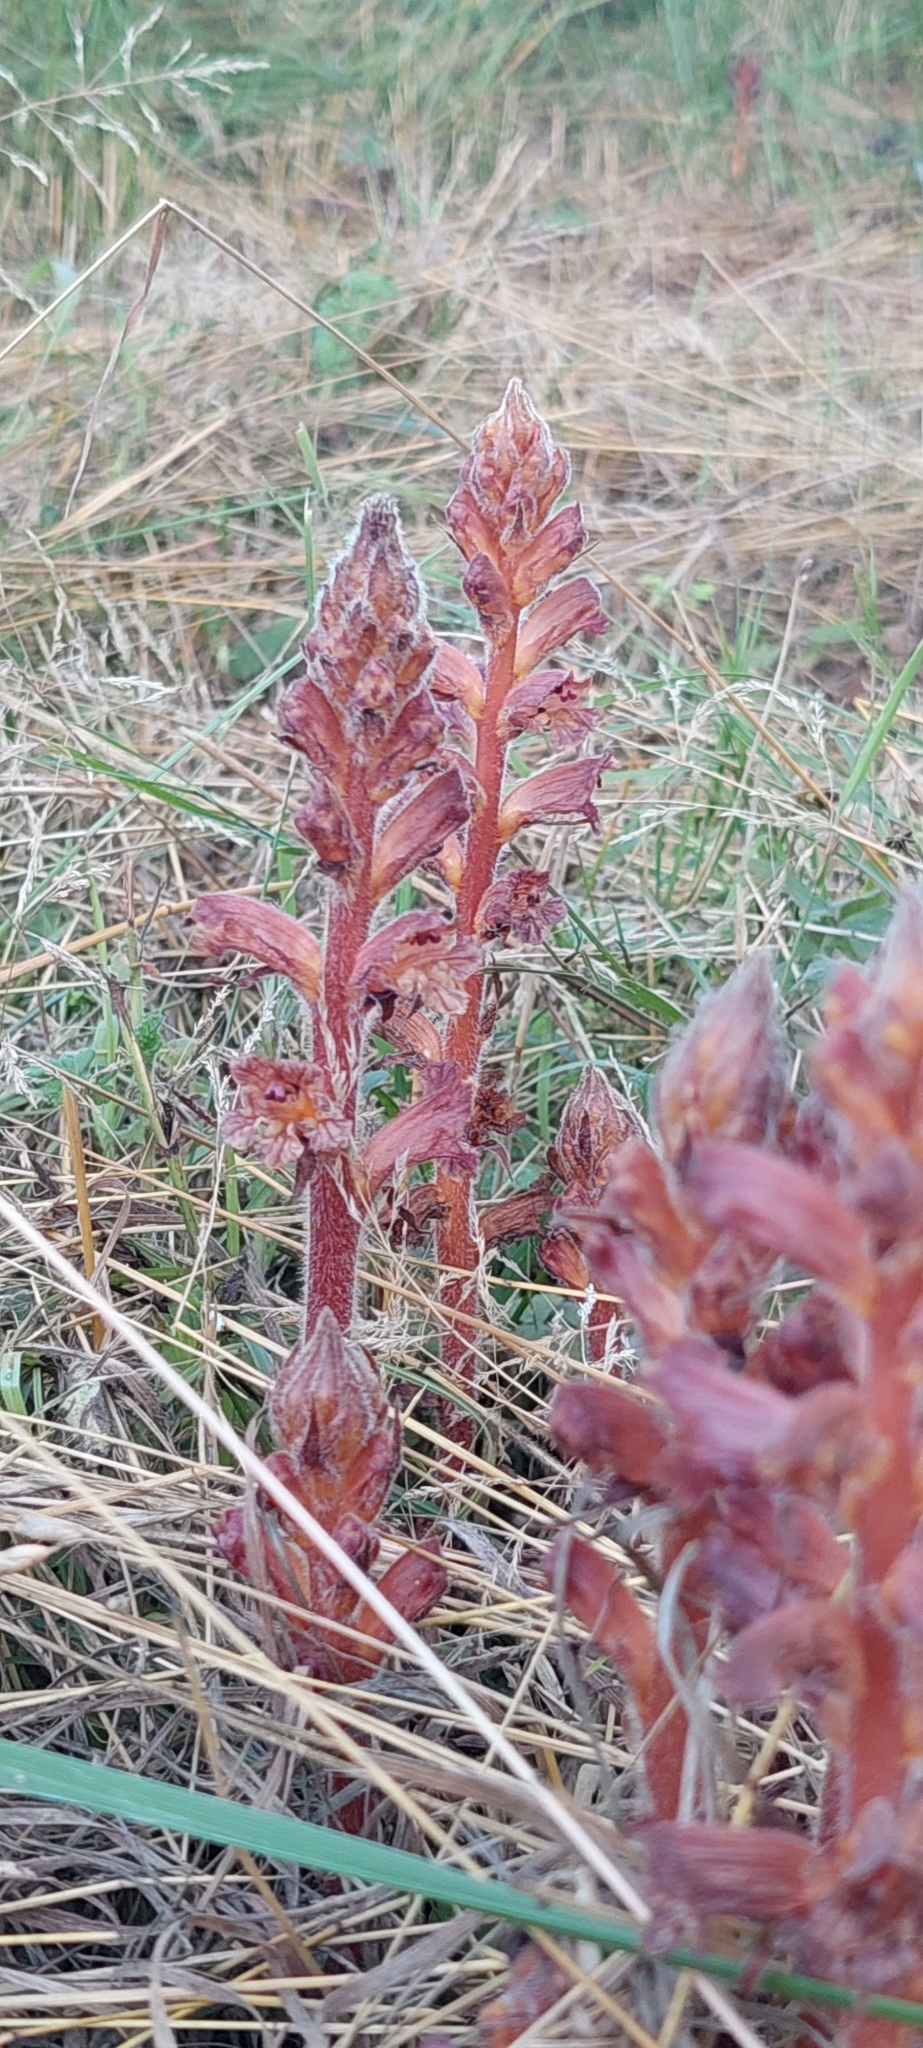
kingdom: Plantae
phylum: Tracheophyta
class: Magnoliopsida
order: Lamiales
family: Orobanchaceae
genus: Orobanche
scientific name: Orobanche laxissima
